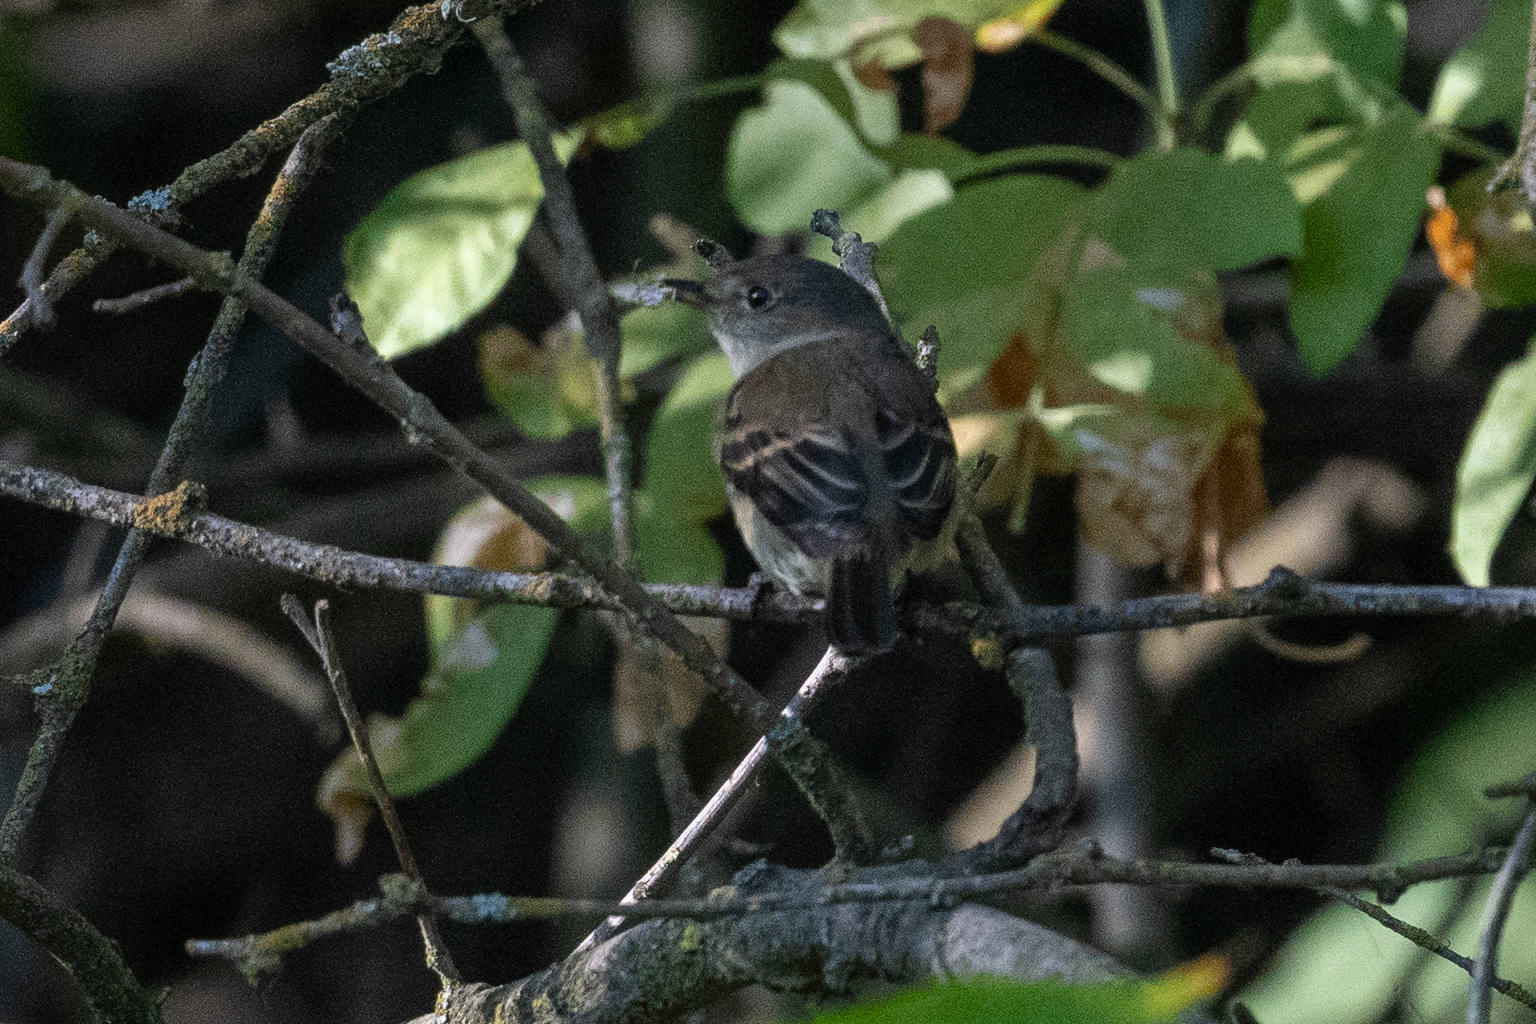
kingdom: Animalia
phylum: Chordata
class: Aves
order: Passeriformes
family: Tyrannidae
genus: Empidonax
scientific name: Empidonax traillii
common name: Willow flycatcher
